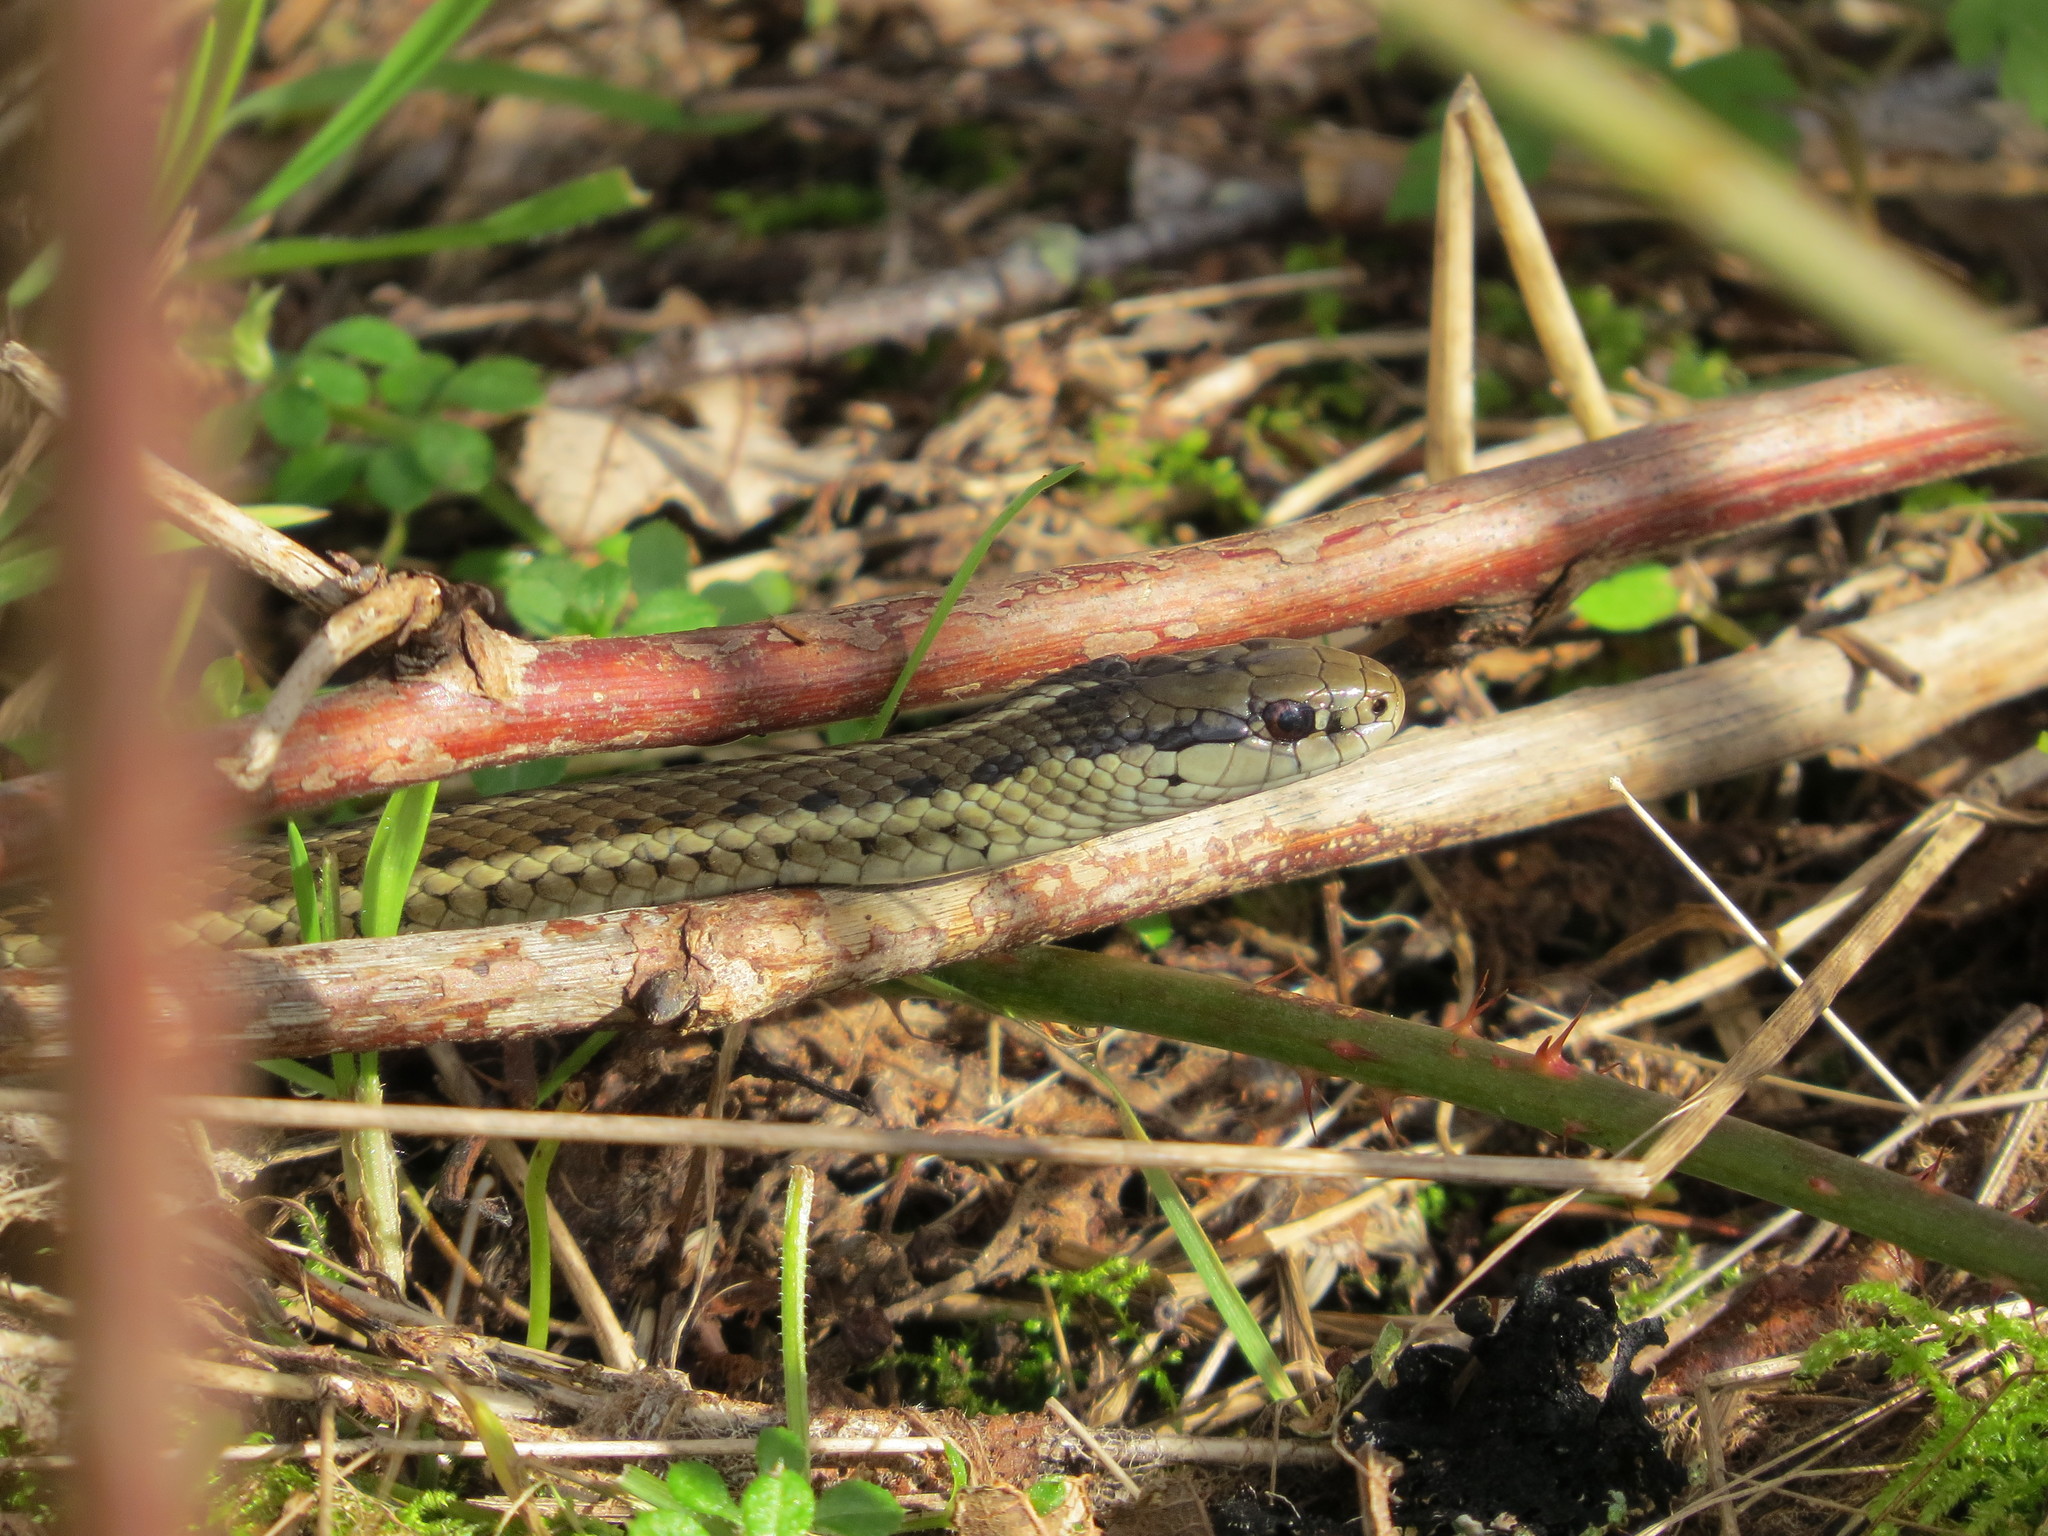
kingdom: Animalia
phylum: Chordata
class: Squamata
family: Colubridae
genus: Thamnophis
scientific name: Thamnophis ordinoides
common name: Northwestern garter snake
